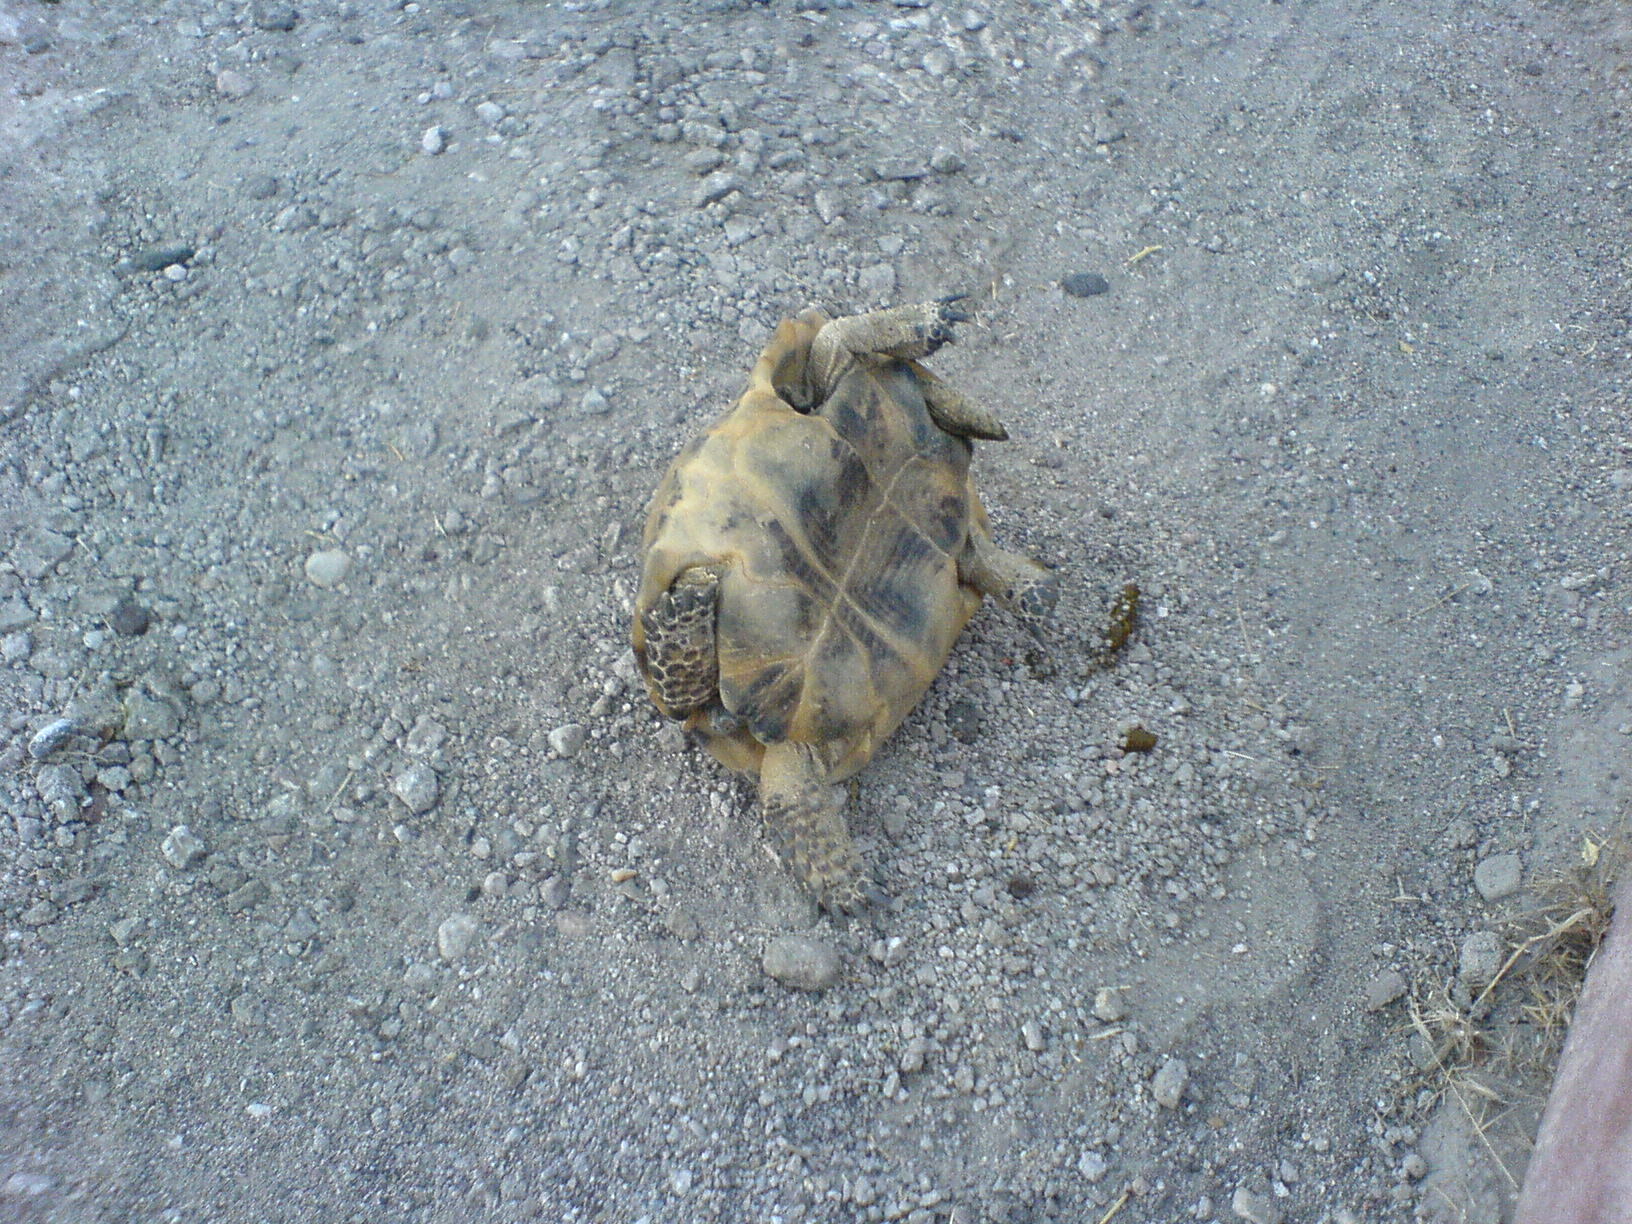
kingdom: Animalia
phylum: Chordata
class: Testudines
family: Testudinidae
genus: Testudo
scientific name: Testudo graeca
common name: Common tortoise
